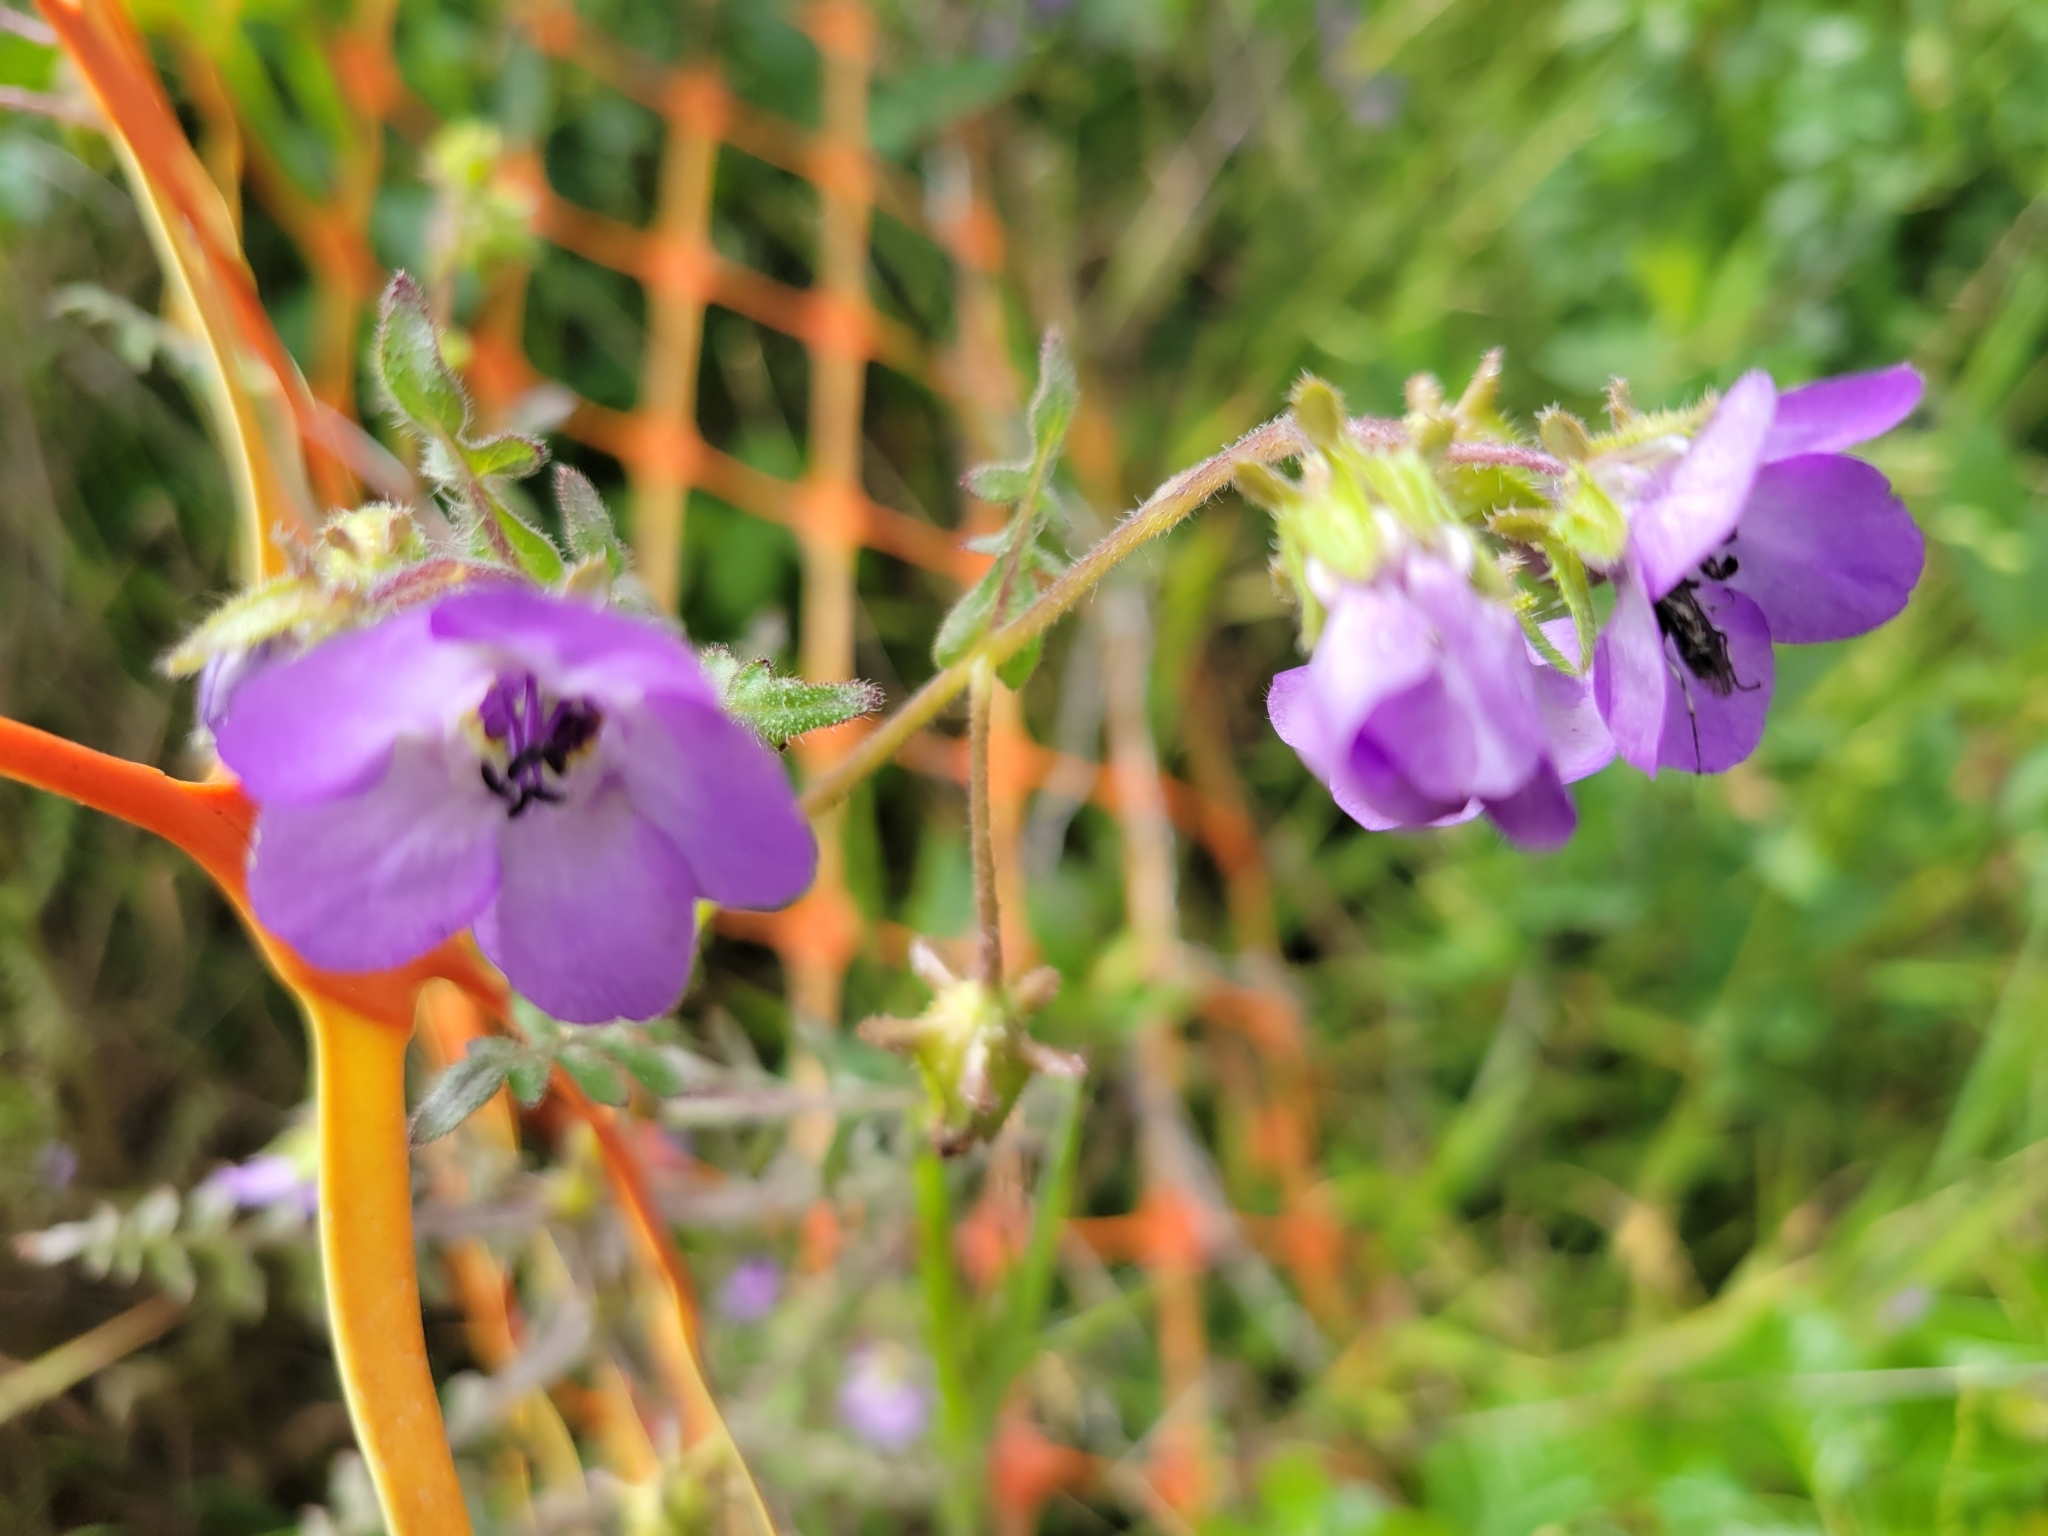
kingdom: Plantae
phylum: Tracheophyta
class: Magnoliopsida
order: Boraginales
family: Hydrophyllaceae
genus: Pholistoma
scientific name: Pholistoma auritum
